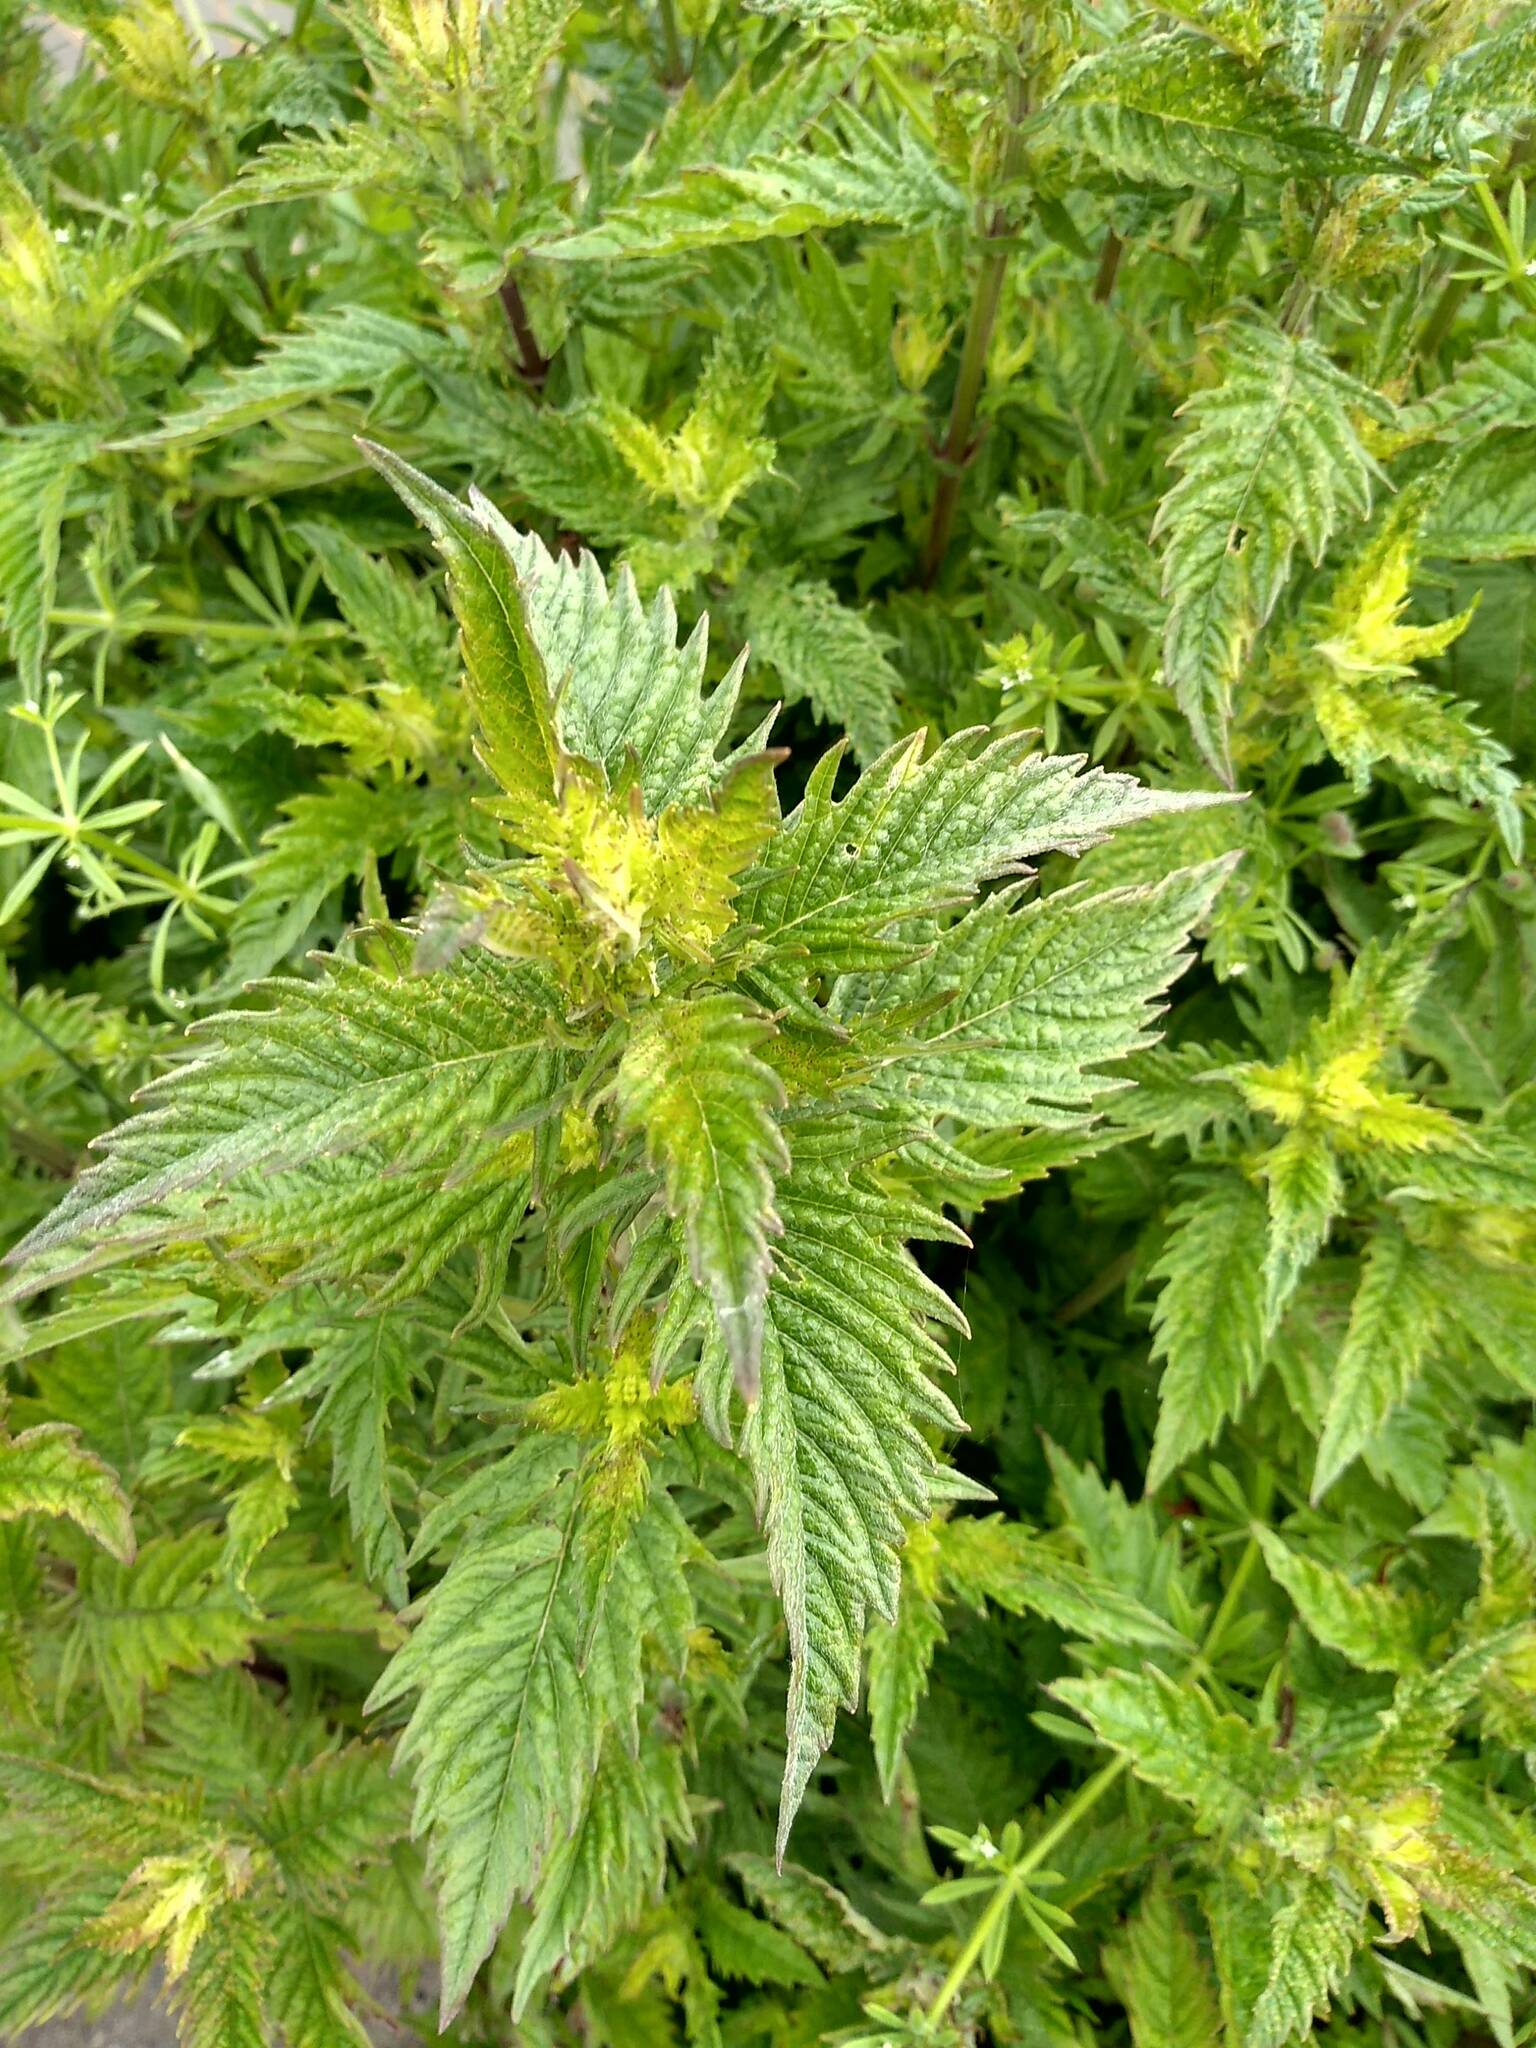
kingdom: Plantae
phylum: Tracheophyta
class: Magnoliopsida
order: Lamiales
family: Lamiaceae
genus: Lycopus
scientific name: Lycopus europaeus
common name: European bugleweed
